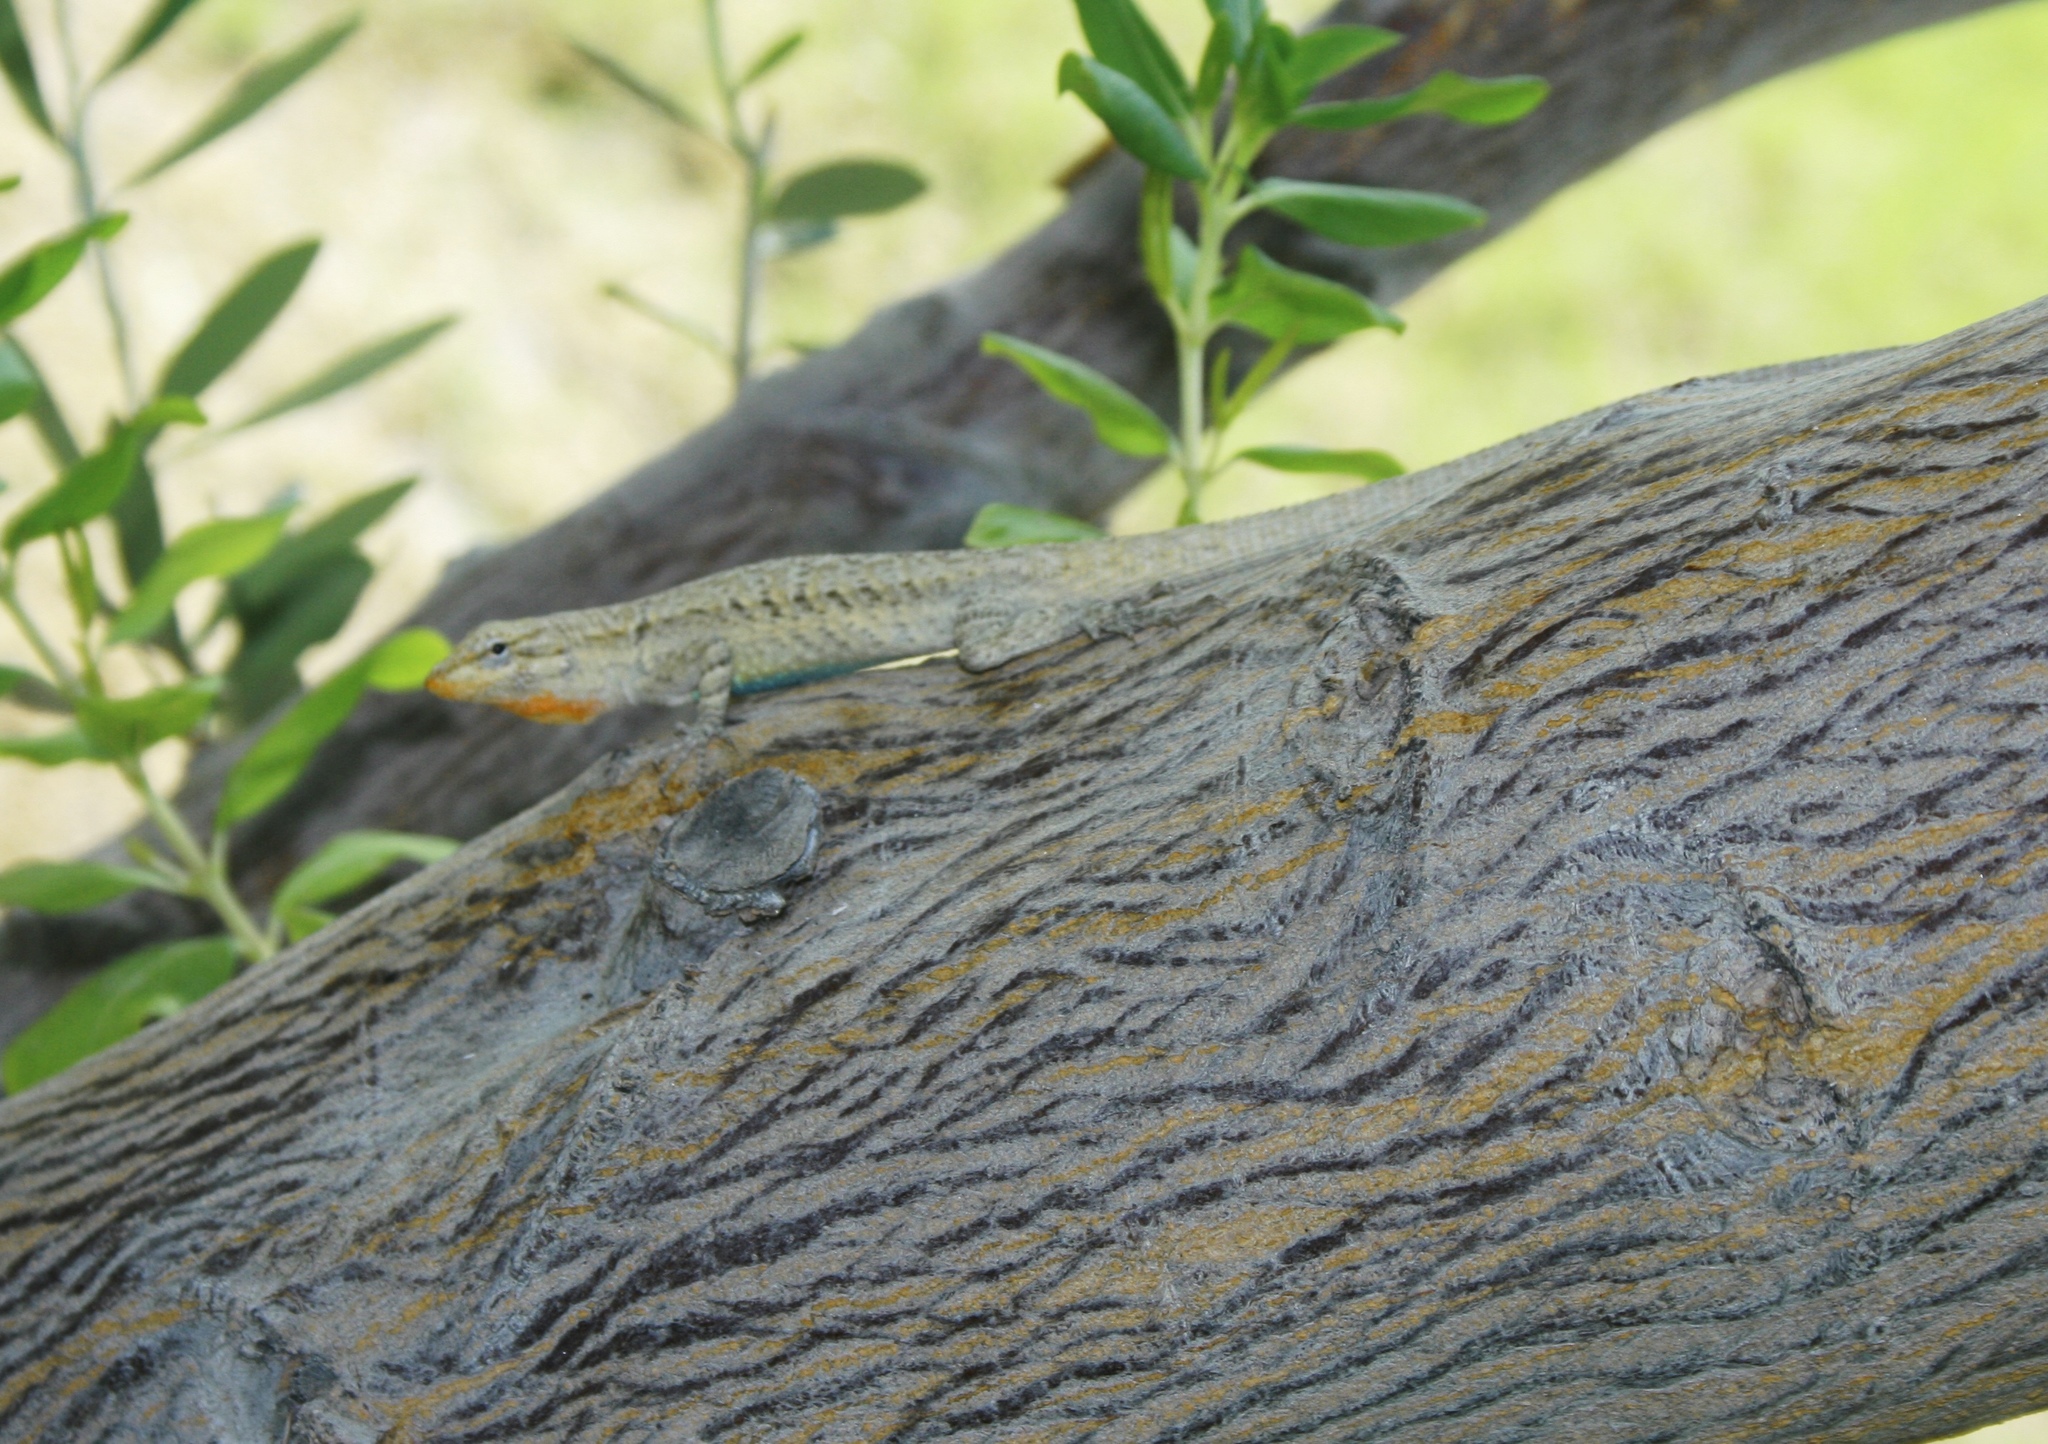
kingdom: Animalia
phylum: Chordata
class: Squamata
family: Phrynosomatidae
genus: Urosaurus
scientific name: Urosaurus graciosus
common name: Long-tailed brush lizard
